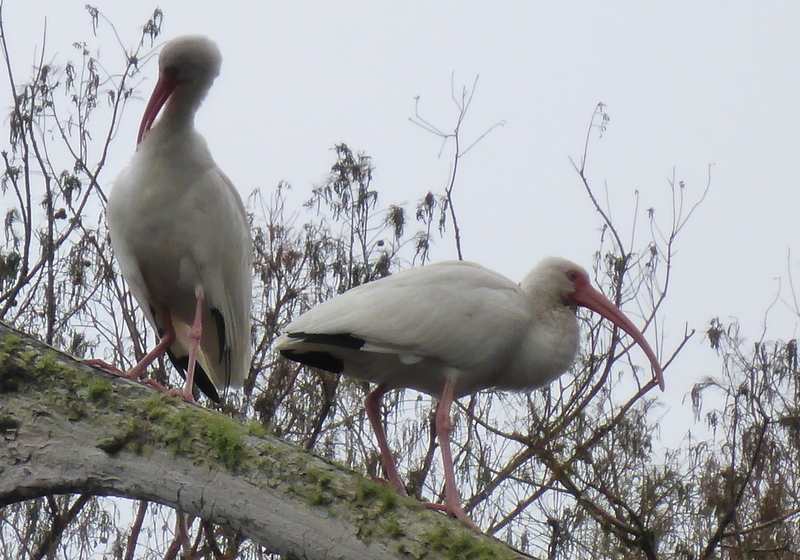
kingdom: Animalia
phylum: Chordata
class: Aves
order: Pelecaniformes
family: Threskiornithidae
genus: Eudocimus
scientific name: Eudocimus albus
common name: White ibis
